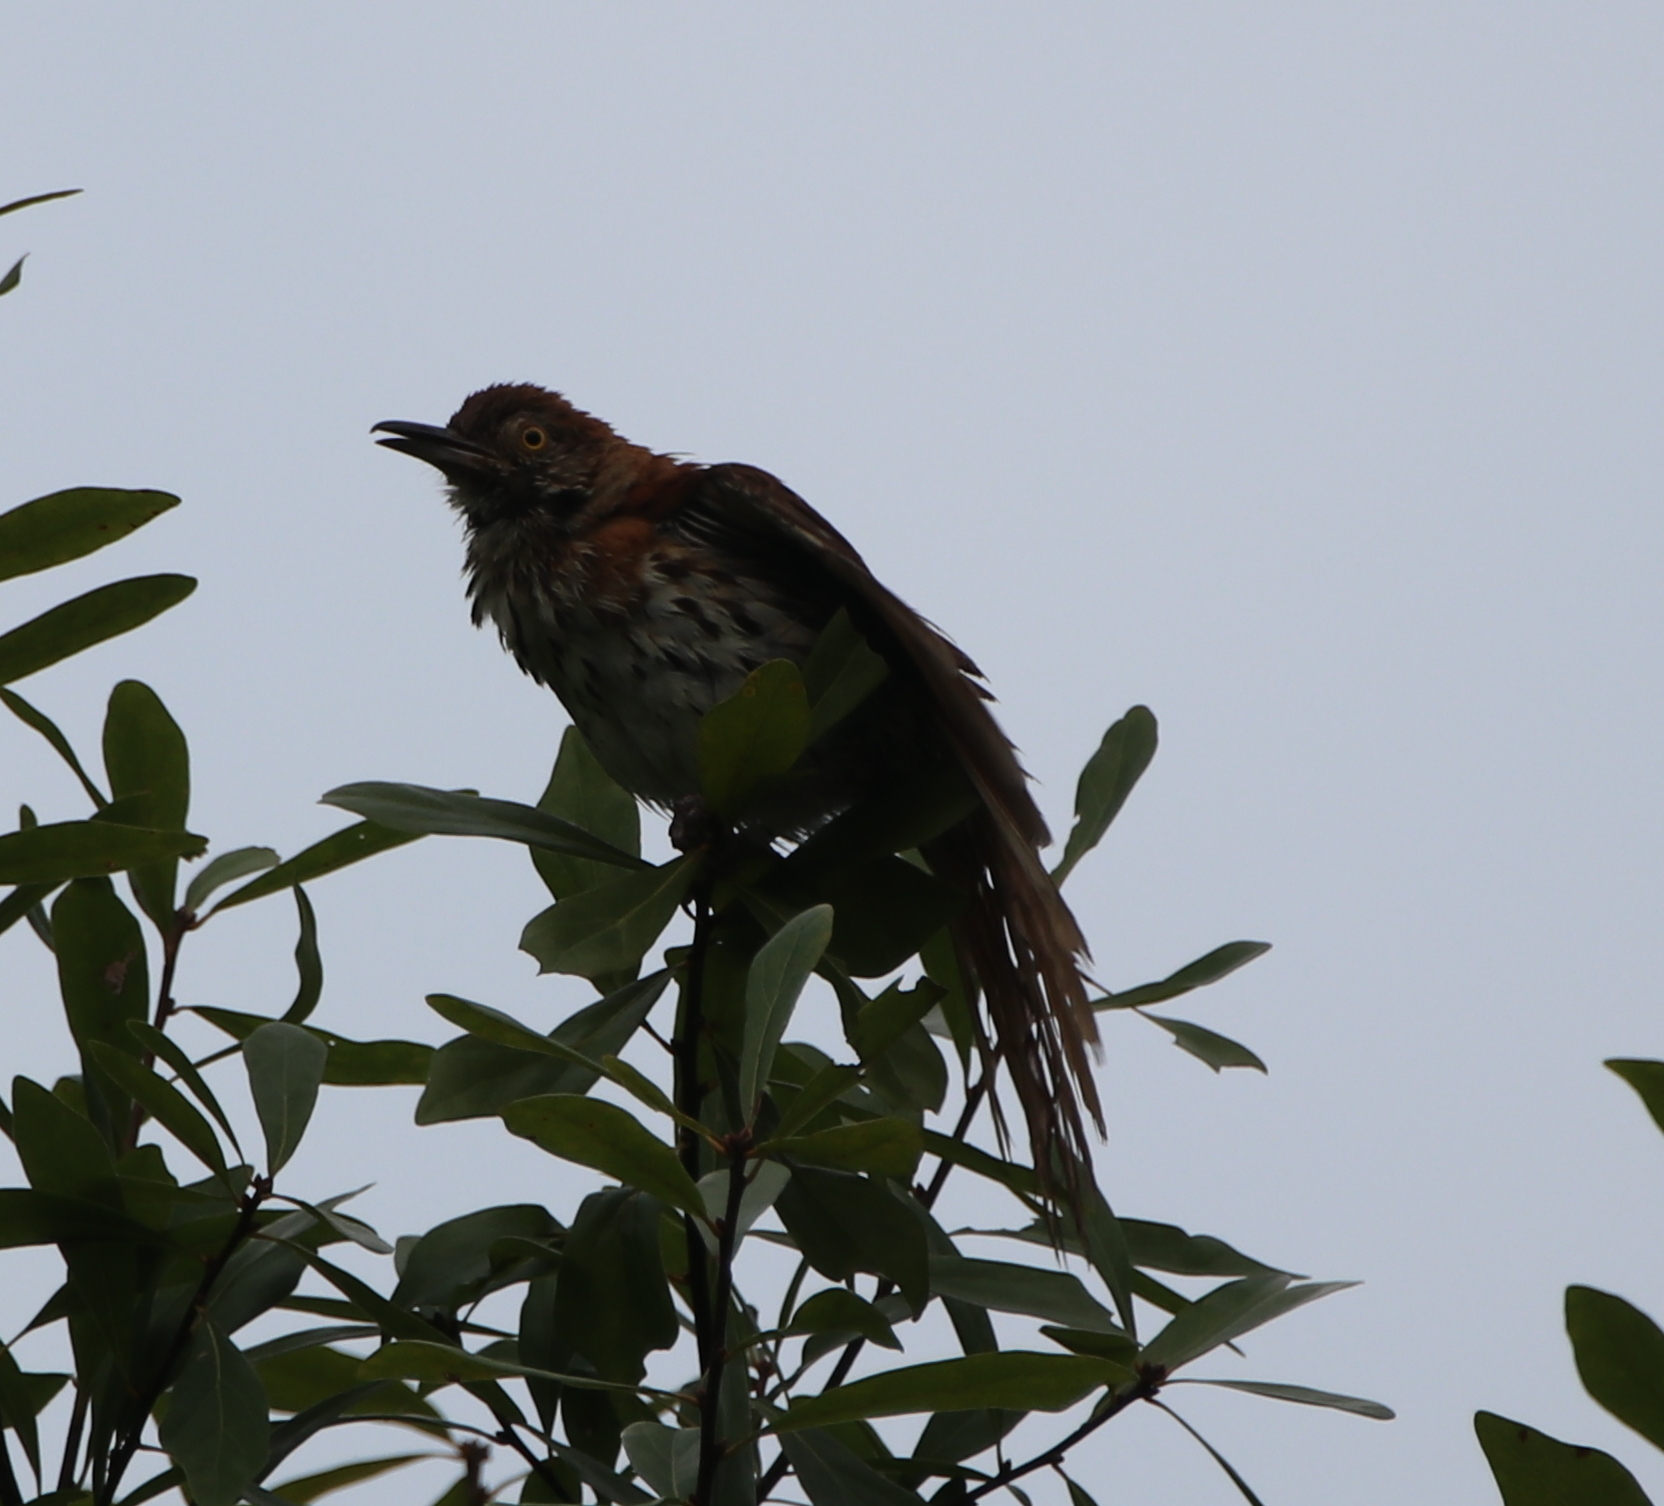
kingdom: Animalia
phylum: Chordata
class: Aves
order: Passeriformes
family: Mimidae
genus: Toxostoma
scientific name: Toxostoma rufum
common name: Brown thrasher
